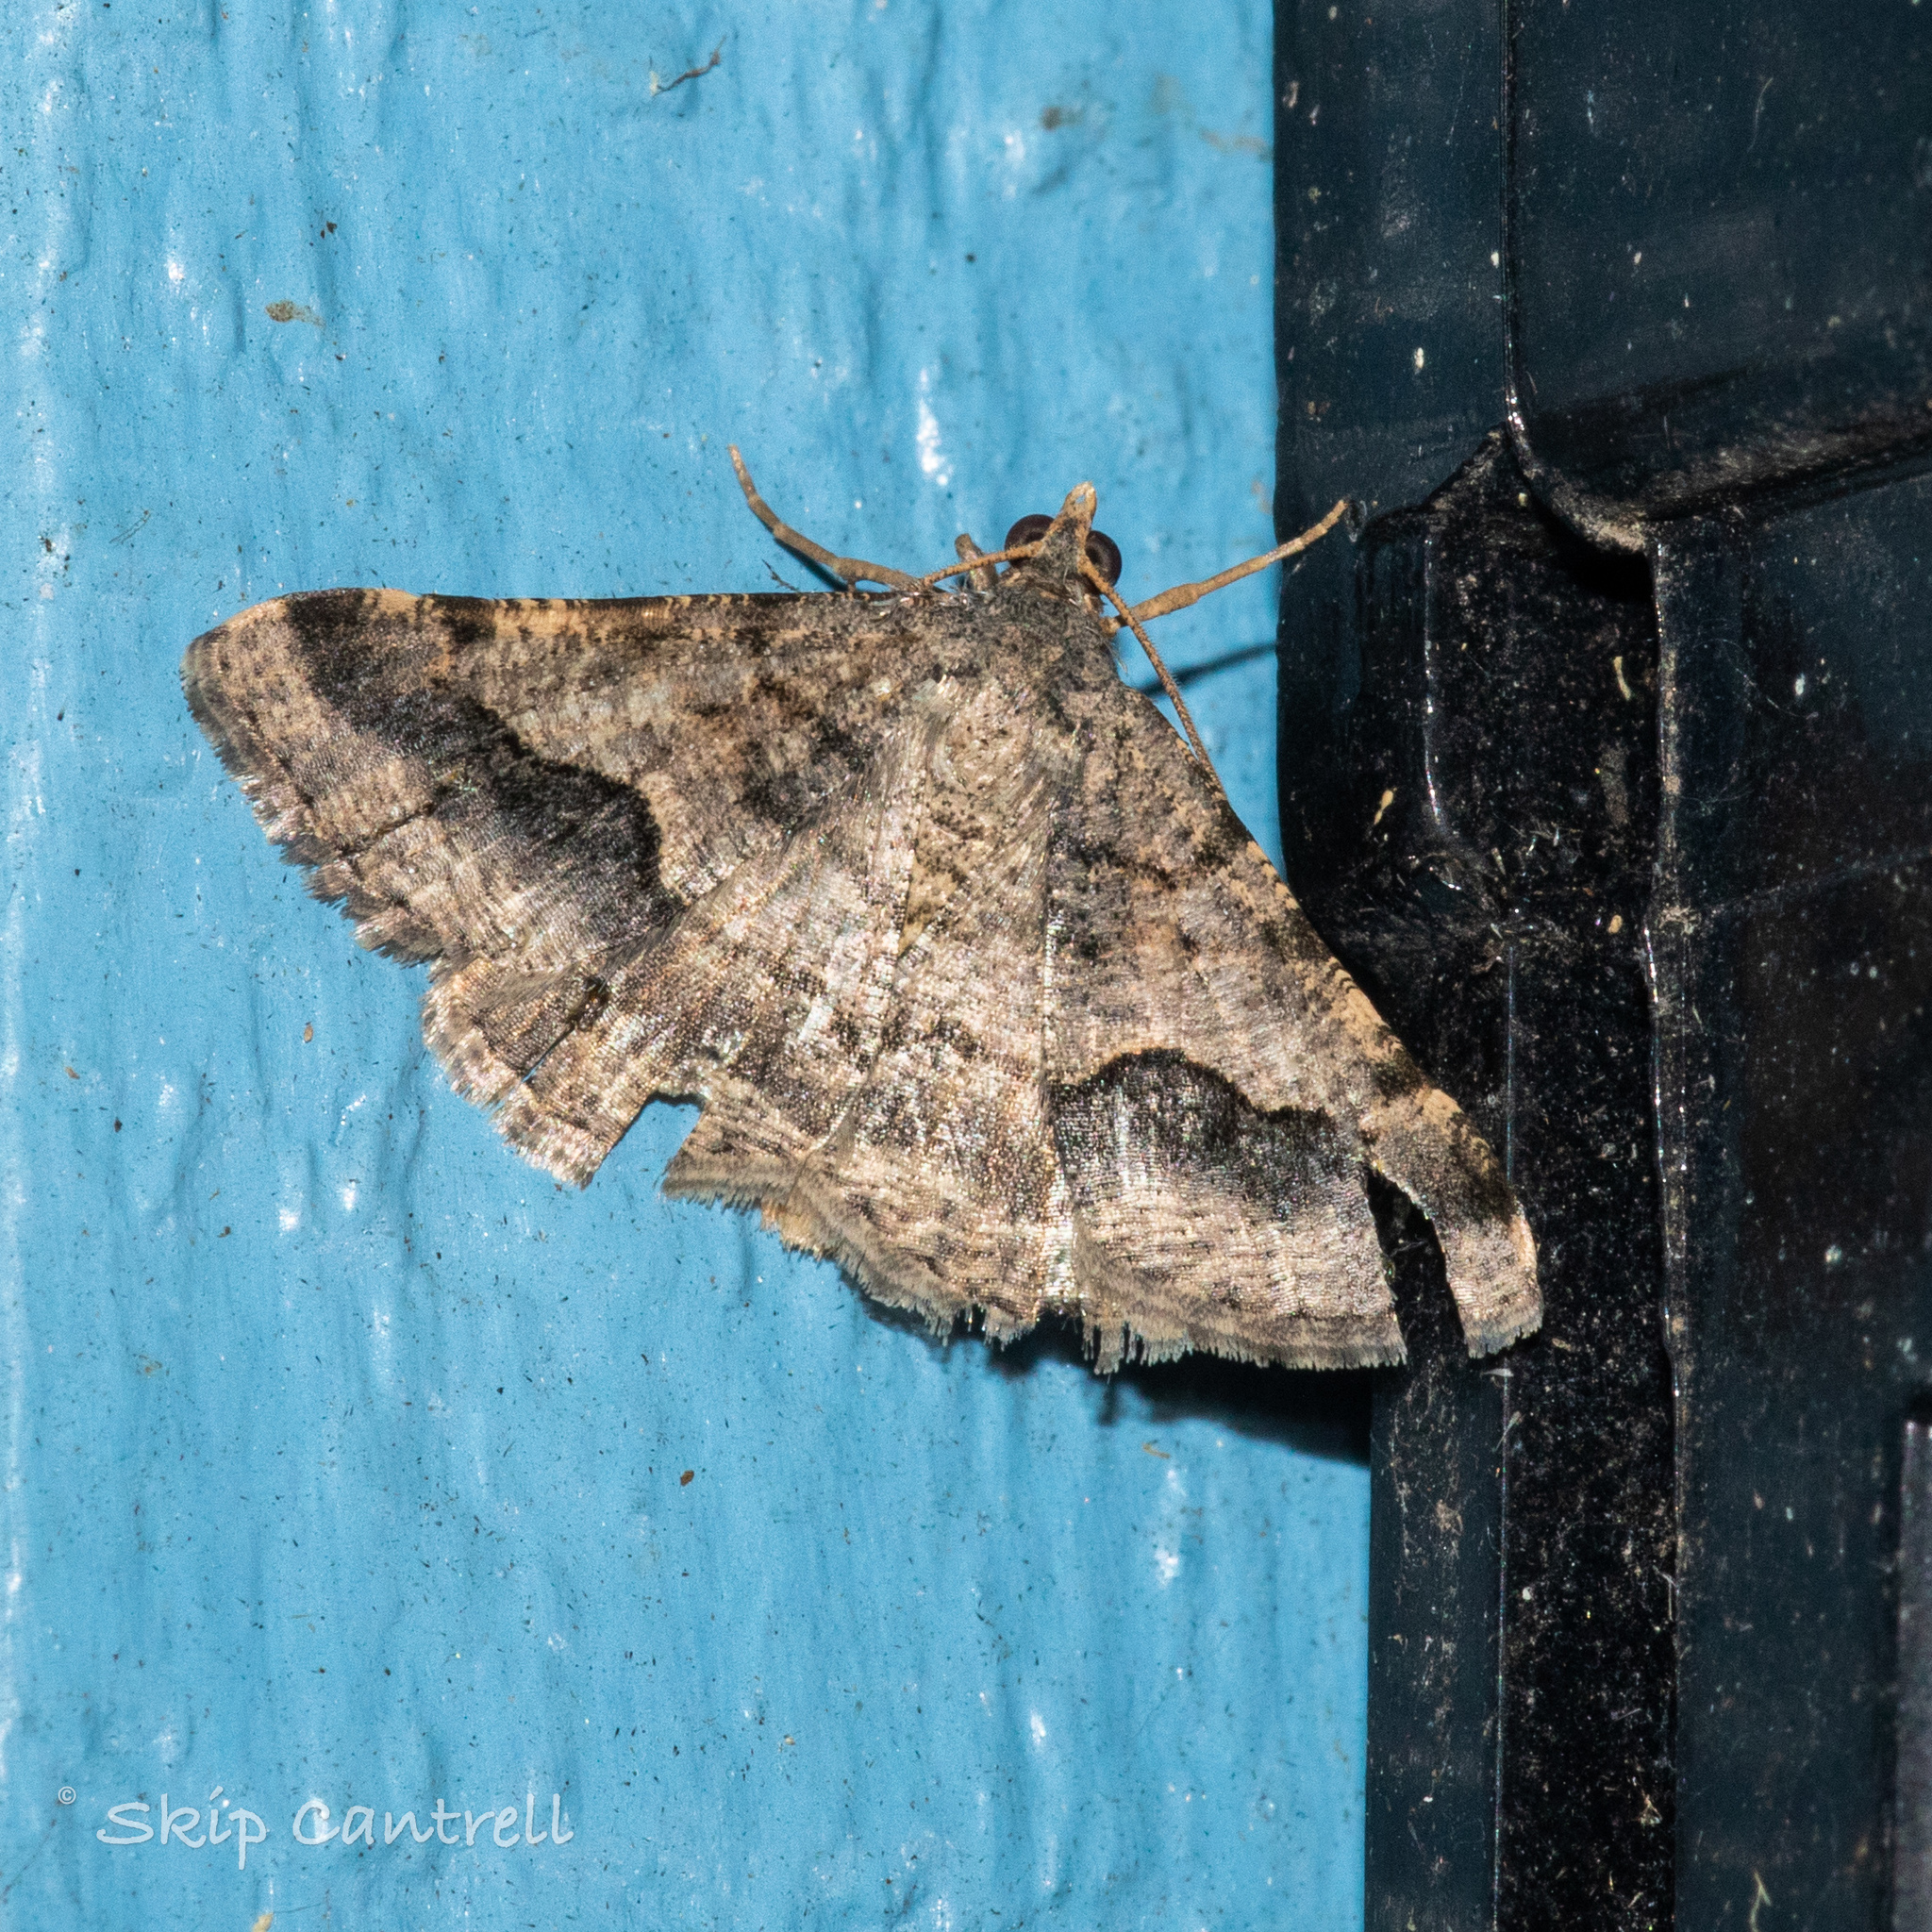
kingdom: Animalia
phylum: Arthropoda
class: Insecta
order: Lepidoptera
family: Geometridae
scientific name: Geometridae
